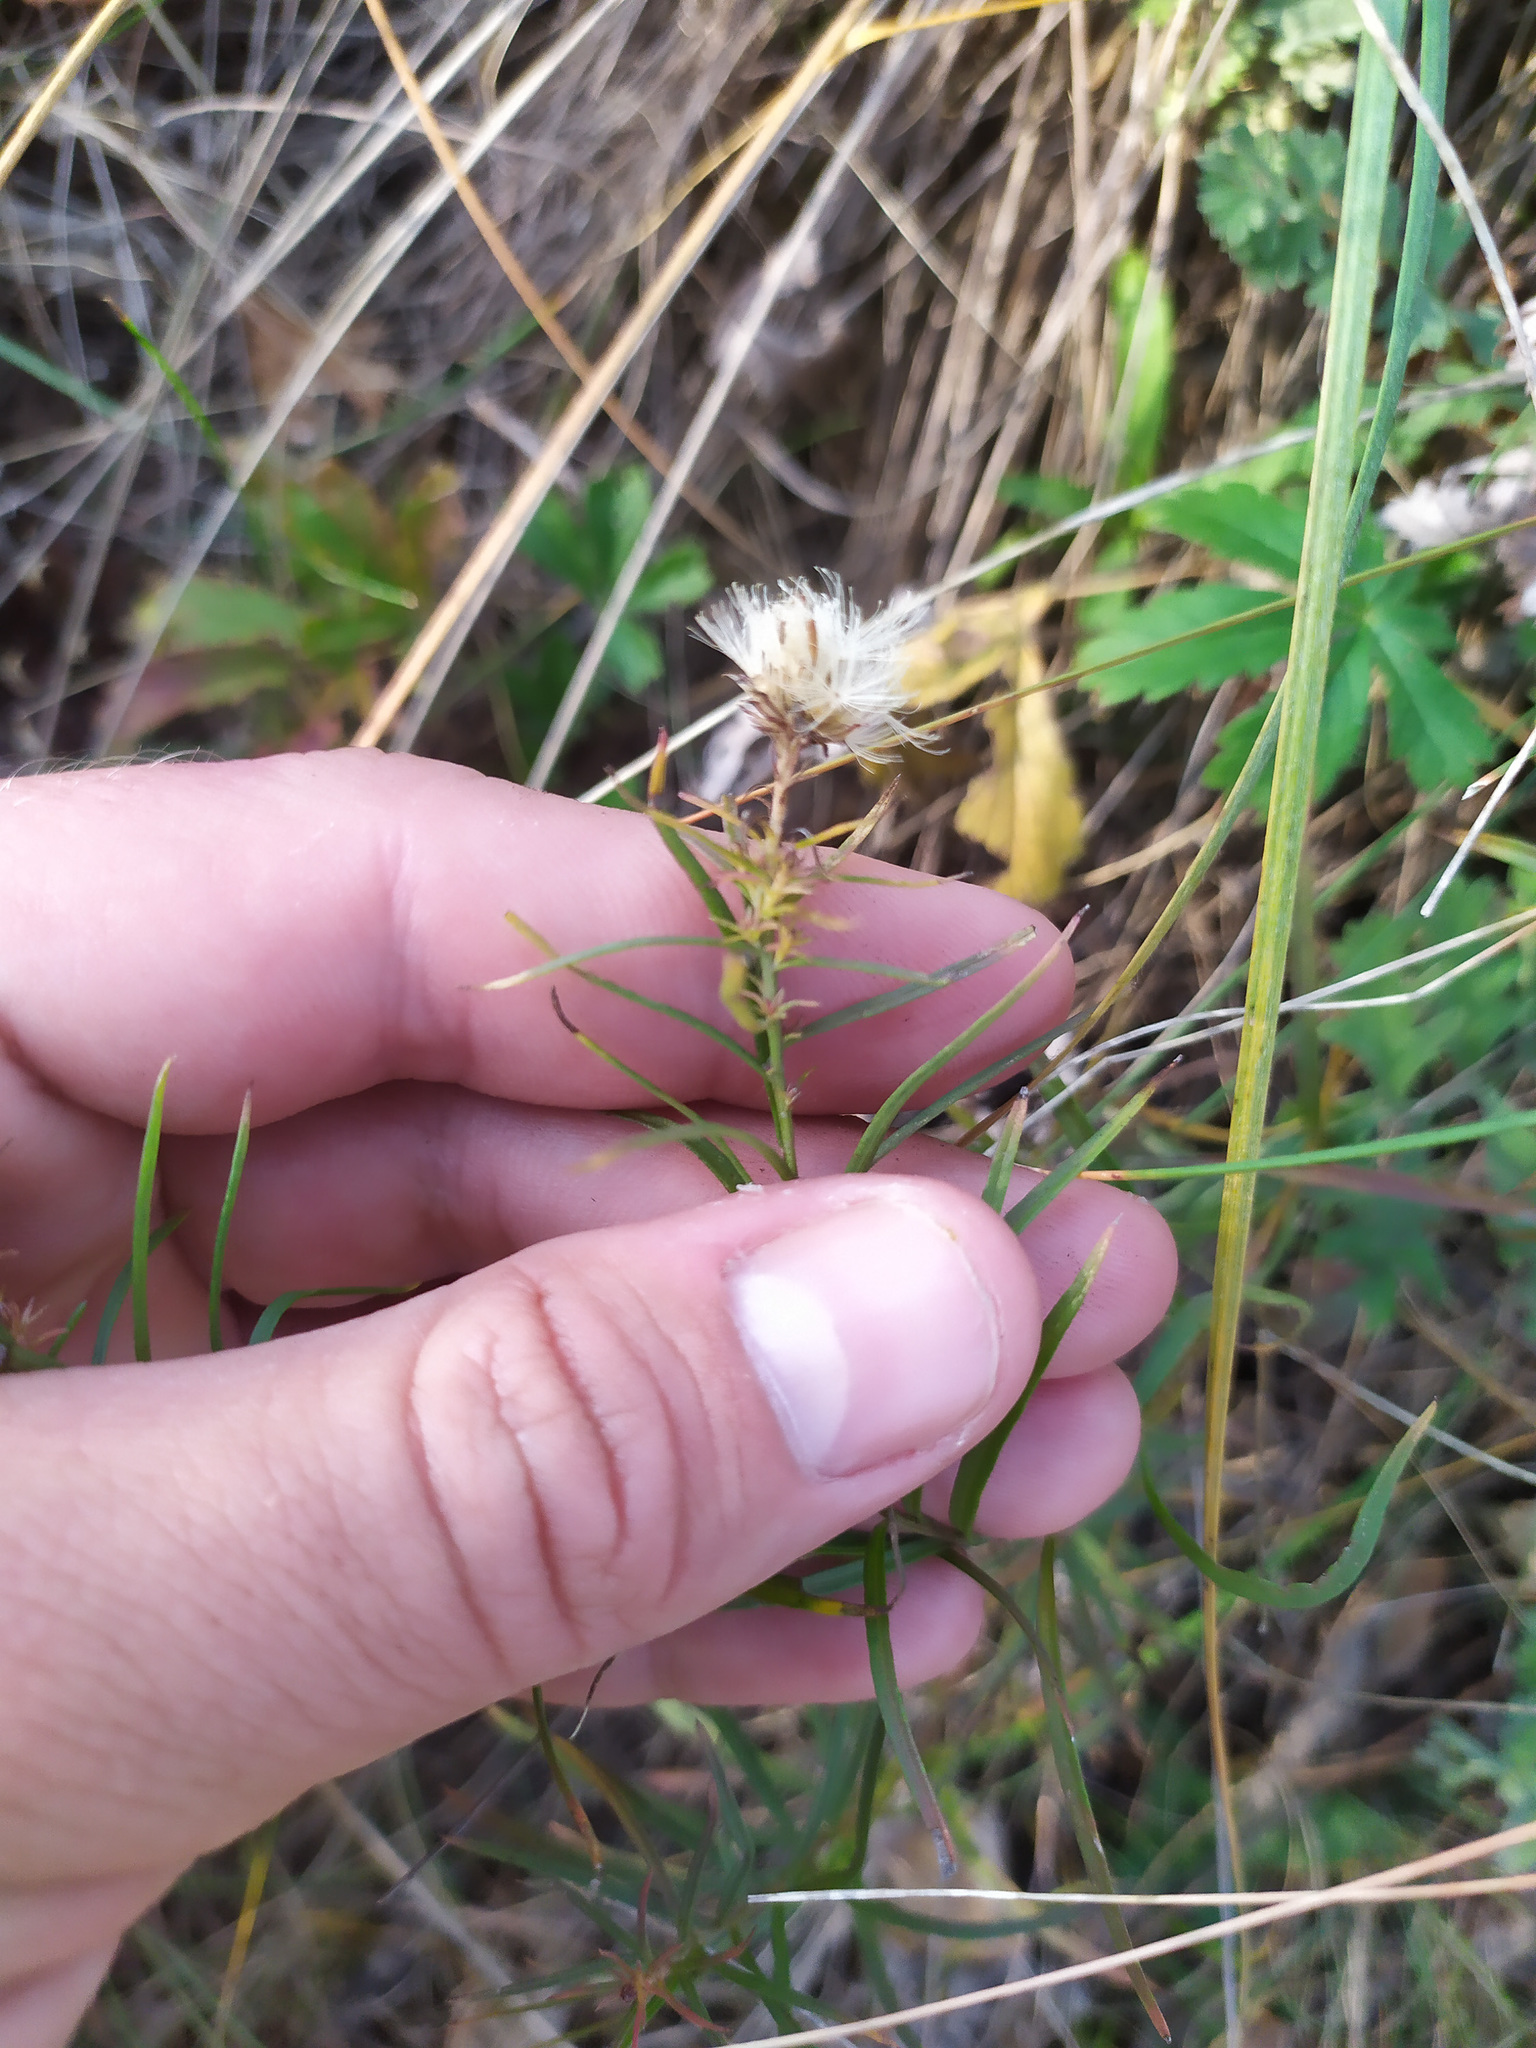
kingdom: Plantae
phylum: Tracheophyta
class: Magnoliopsida
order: Asterales
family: Asteraceae
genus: Galatella
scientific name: Galatella angustissima
